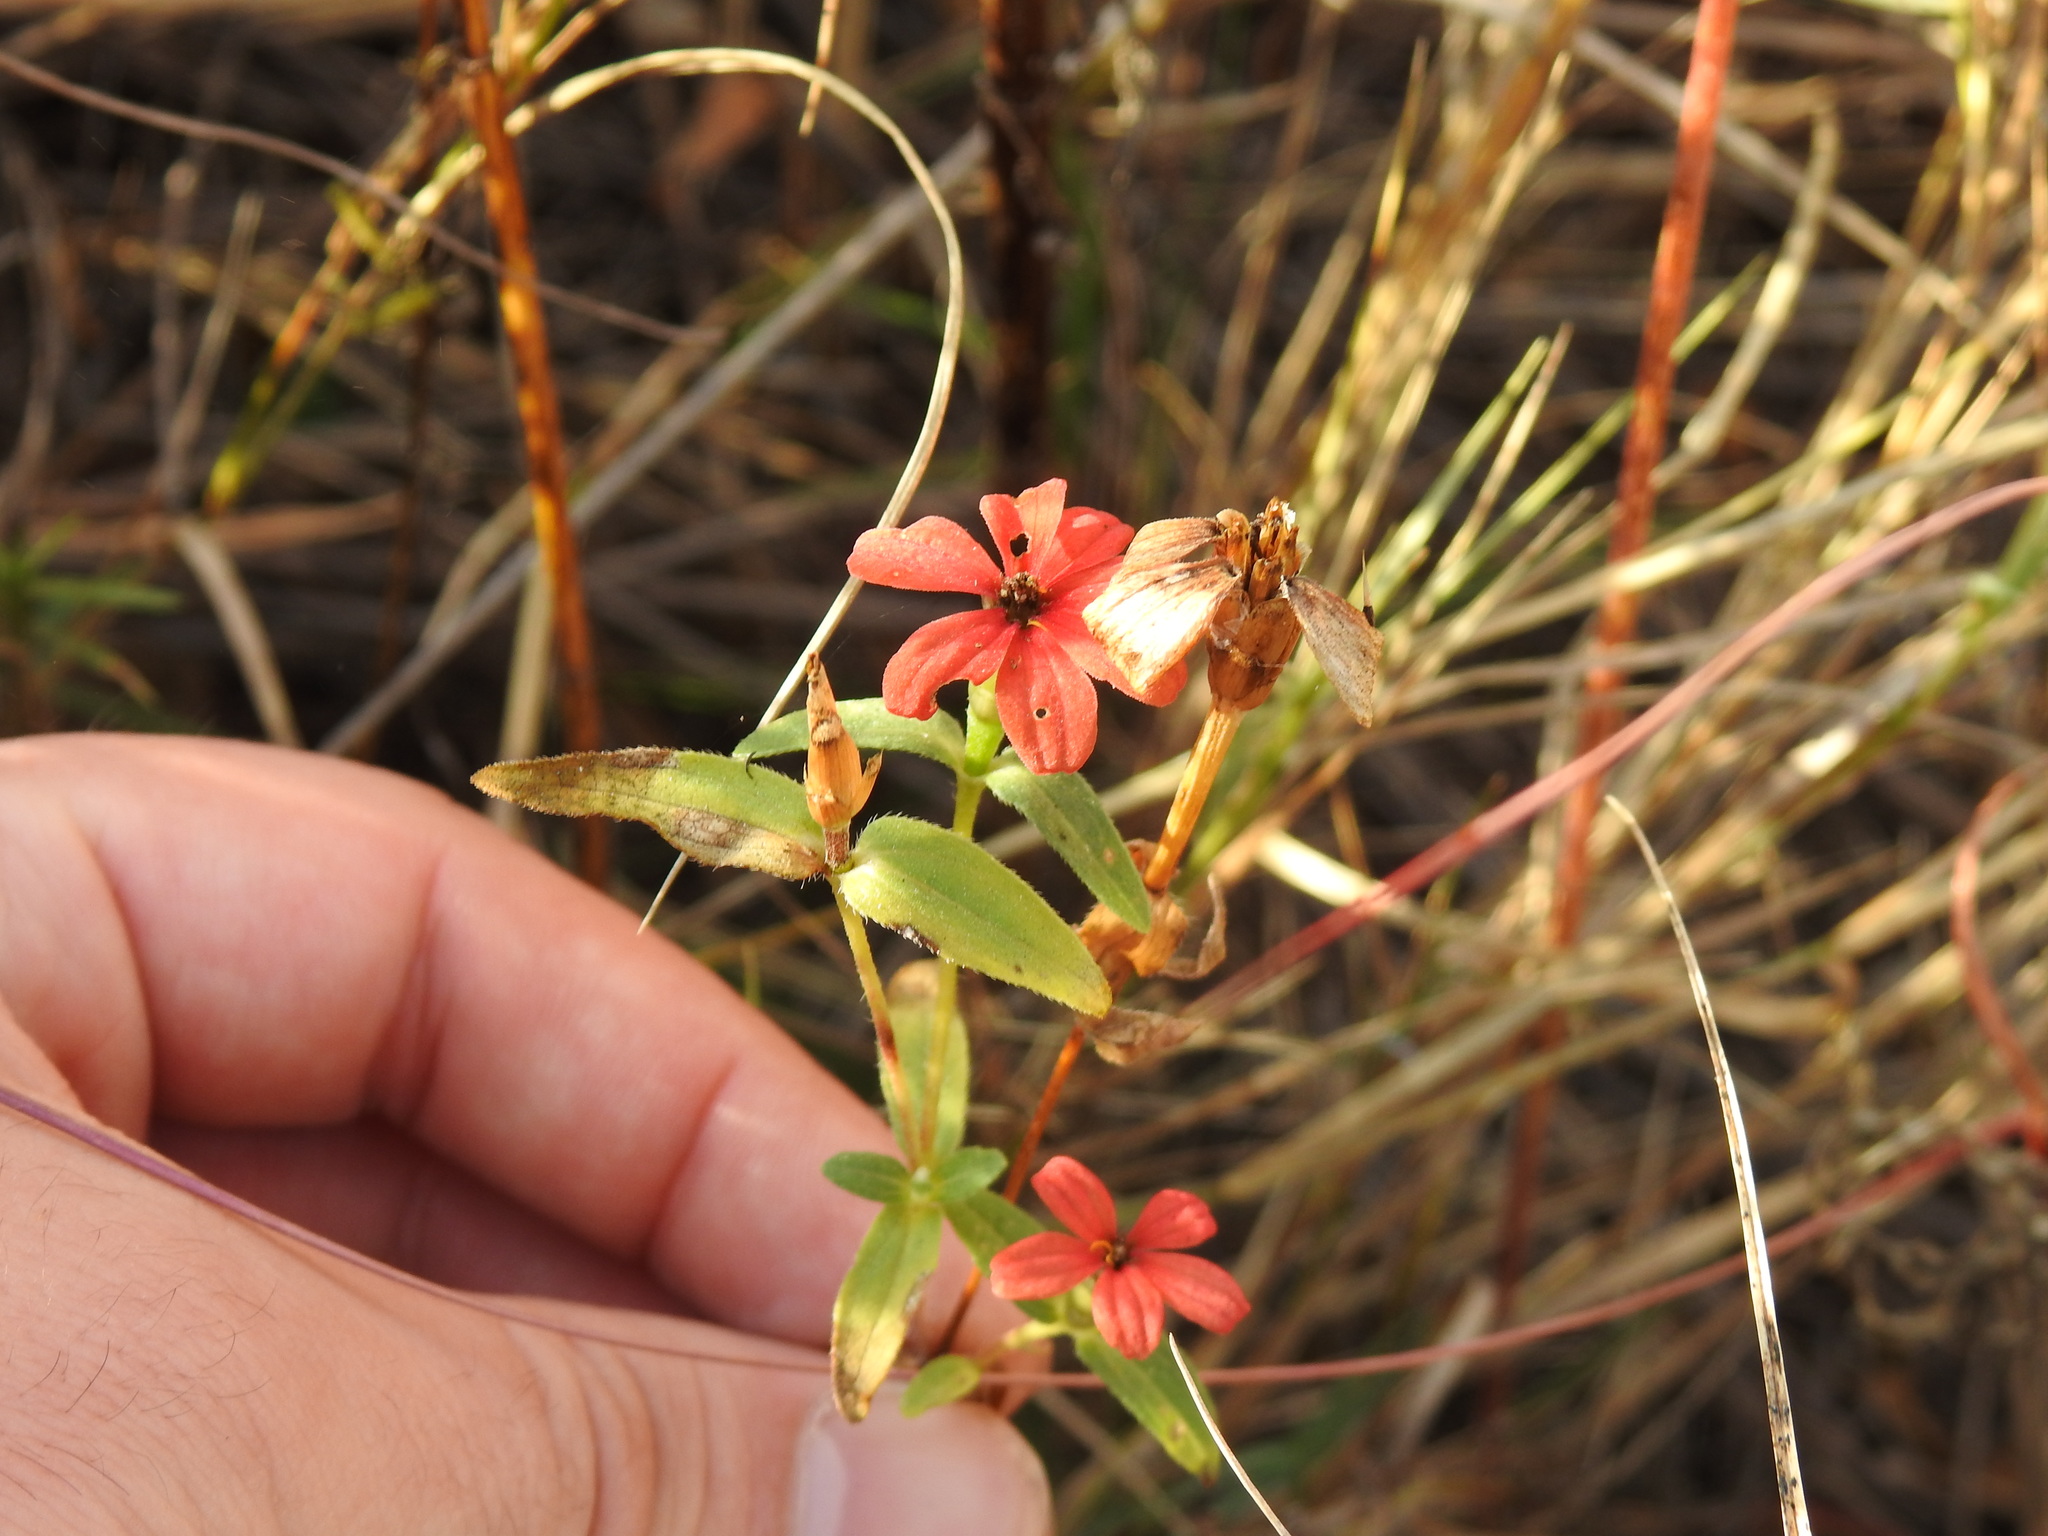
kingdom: Plantae
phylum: Tracheophyta
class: Magnoliopsida
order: Asterales
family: Asteraceae
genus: Zinnia
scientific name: Zinnia peruviana
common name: Peruvian zinnia
